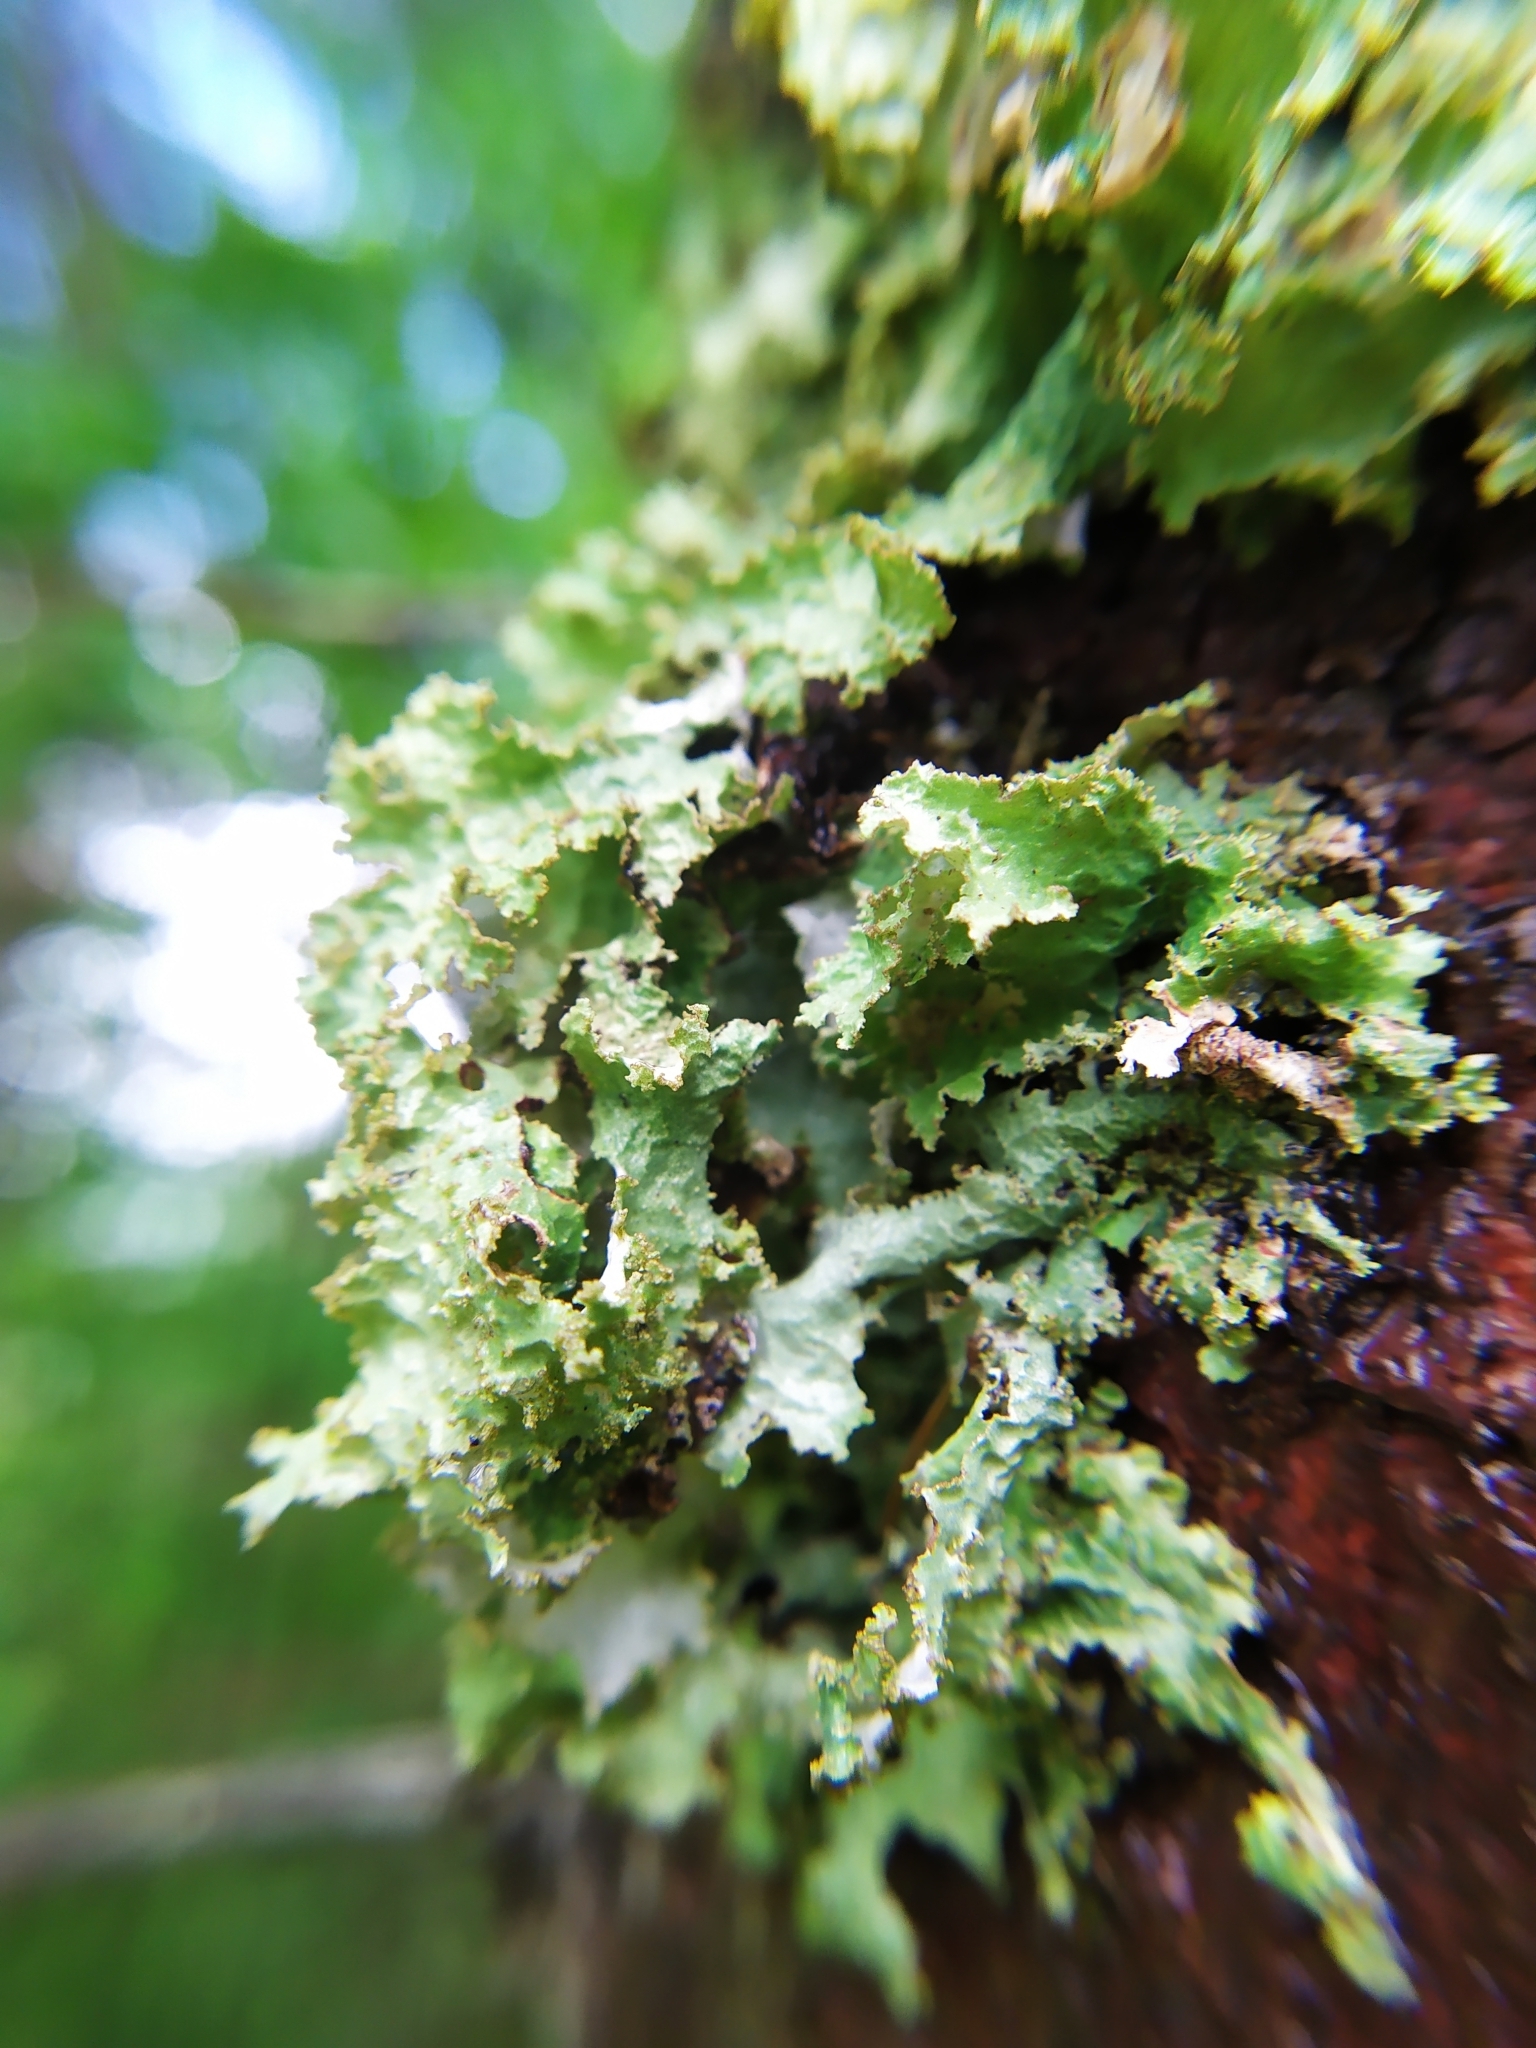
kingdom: Fungi
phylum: Ascomycota
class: Lecanoromycetes
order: Lecanorales
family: Parmeliaceae
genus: Platismatia
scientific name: Platismatia glauca
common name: Varied rag lichen
